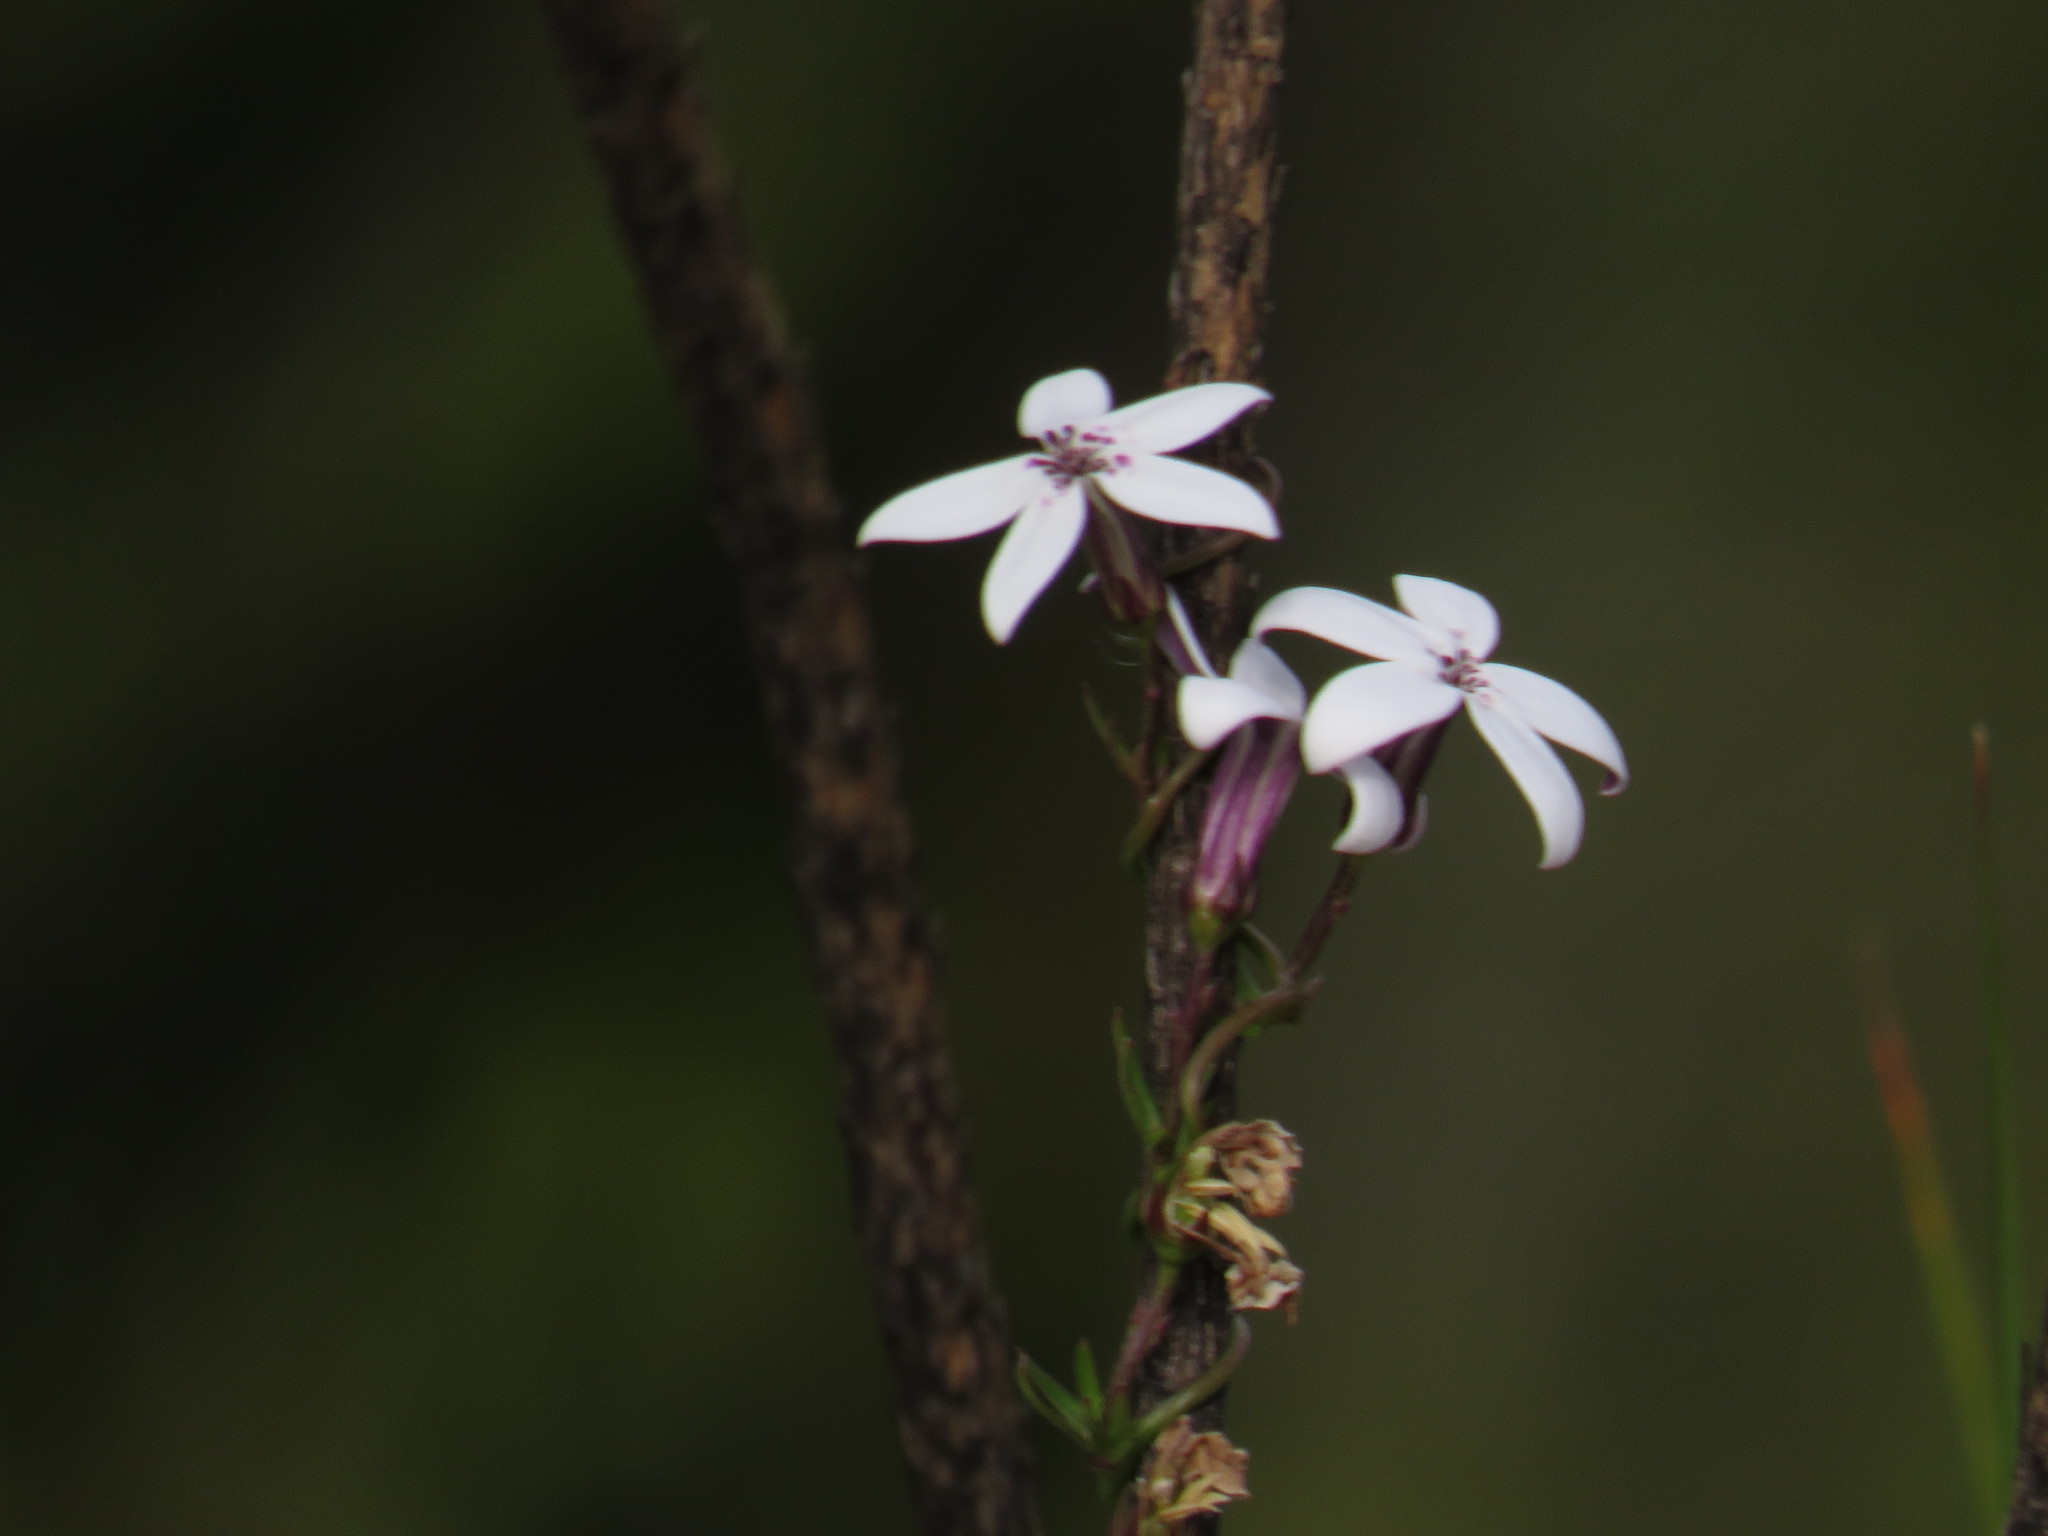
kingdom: Plantae
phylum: Tracheophyta
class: Magnoliopsida
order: Asterales
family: Campanulaceae
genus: Cyphia
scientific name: Cyphia volubilis
